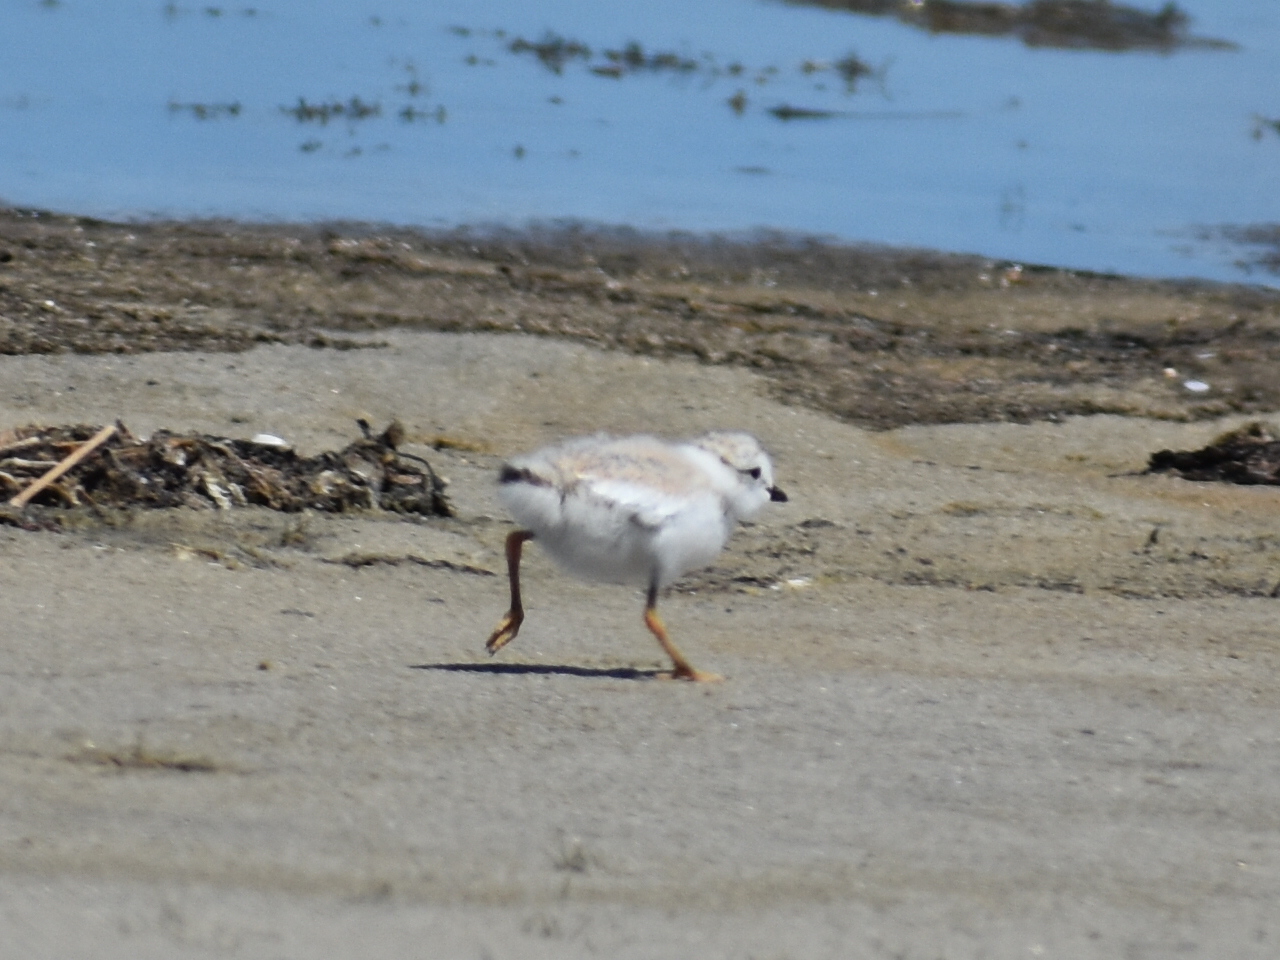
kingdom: Animalia
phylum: Chordata
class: Aves
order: Charadriiformes
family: Charadriidae
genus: Charadrius
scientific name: Charadrius melodus
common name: Piping plover
